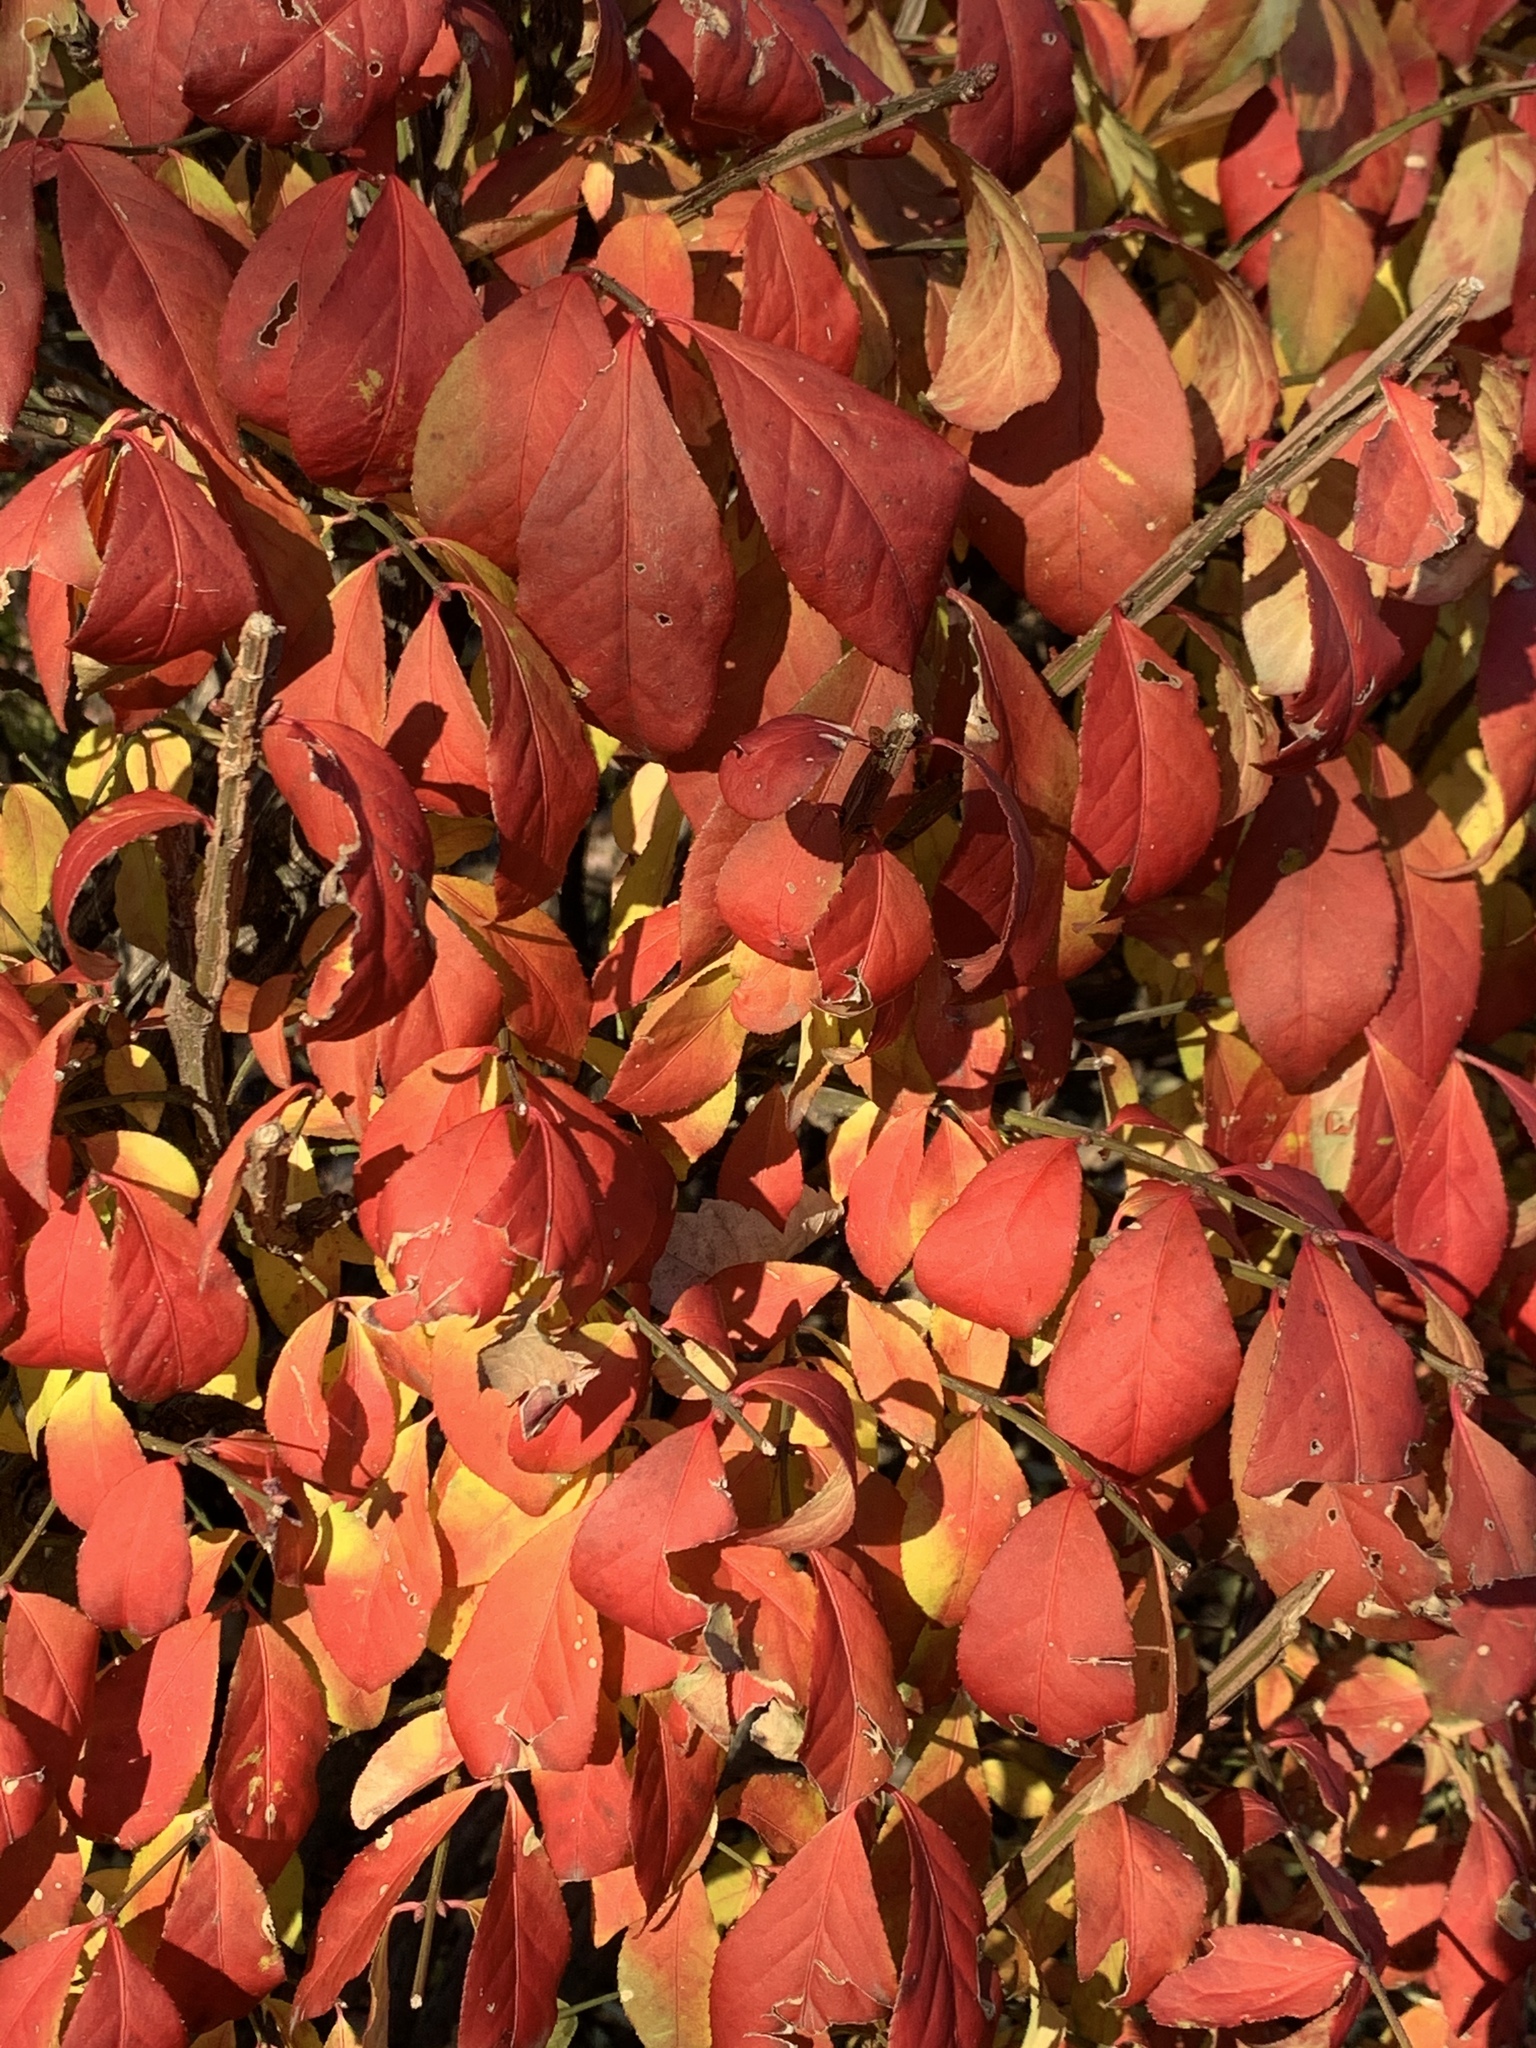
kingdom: Plantae
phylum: Tracheophyta
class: Magnoliopsida
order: Celastrales
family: Celastraceae
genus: Euonymus
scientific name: Euonymus alatus
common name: Winged euonymus
